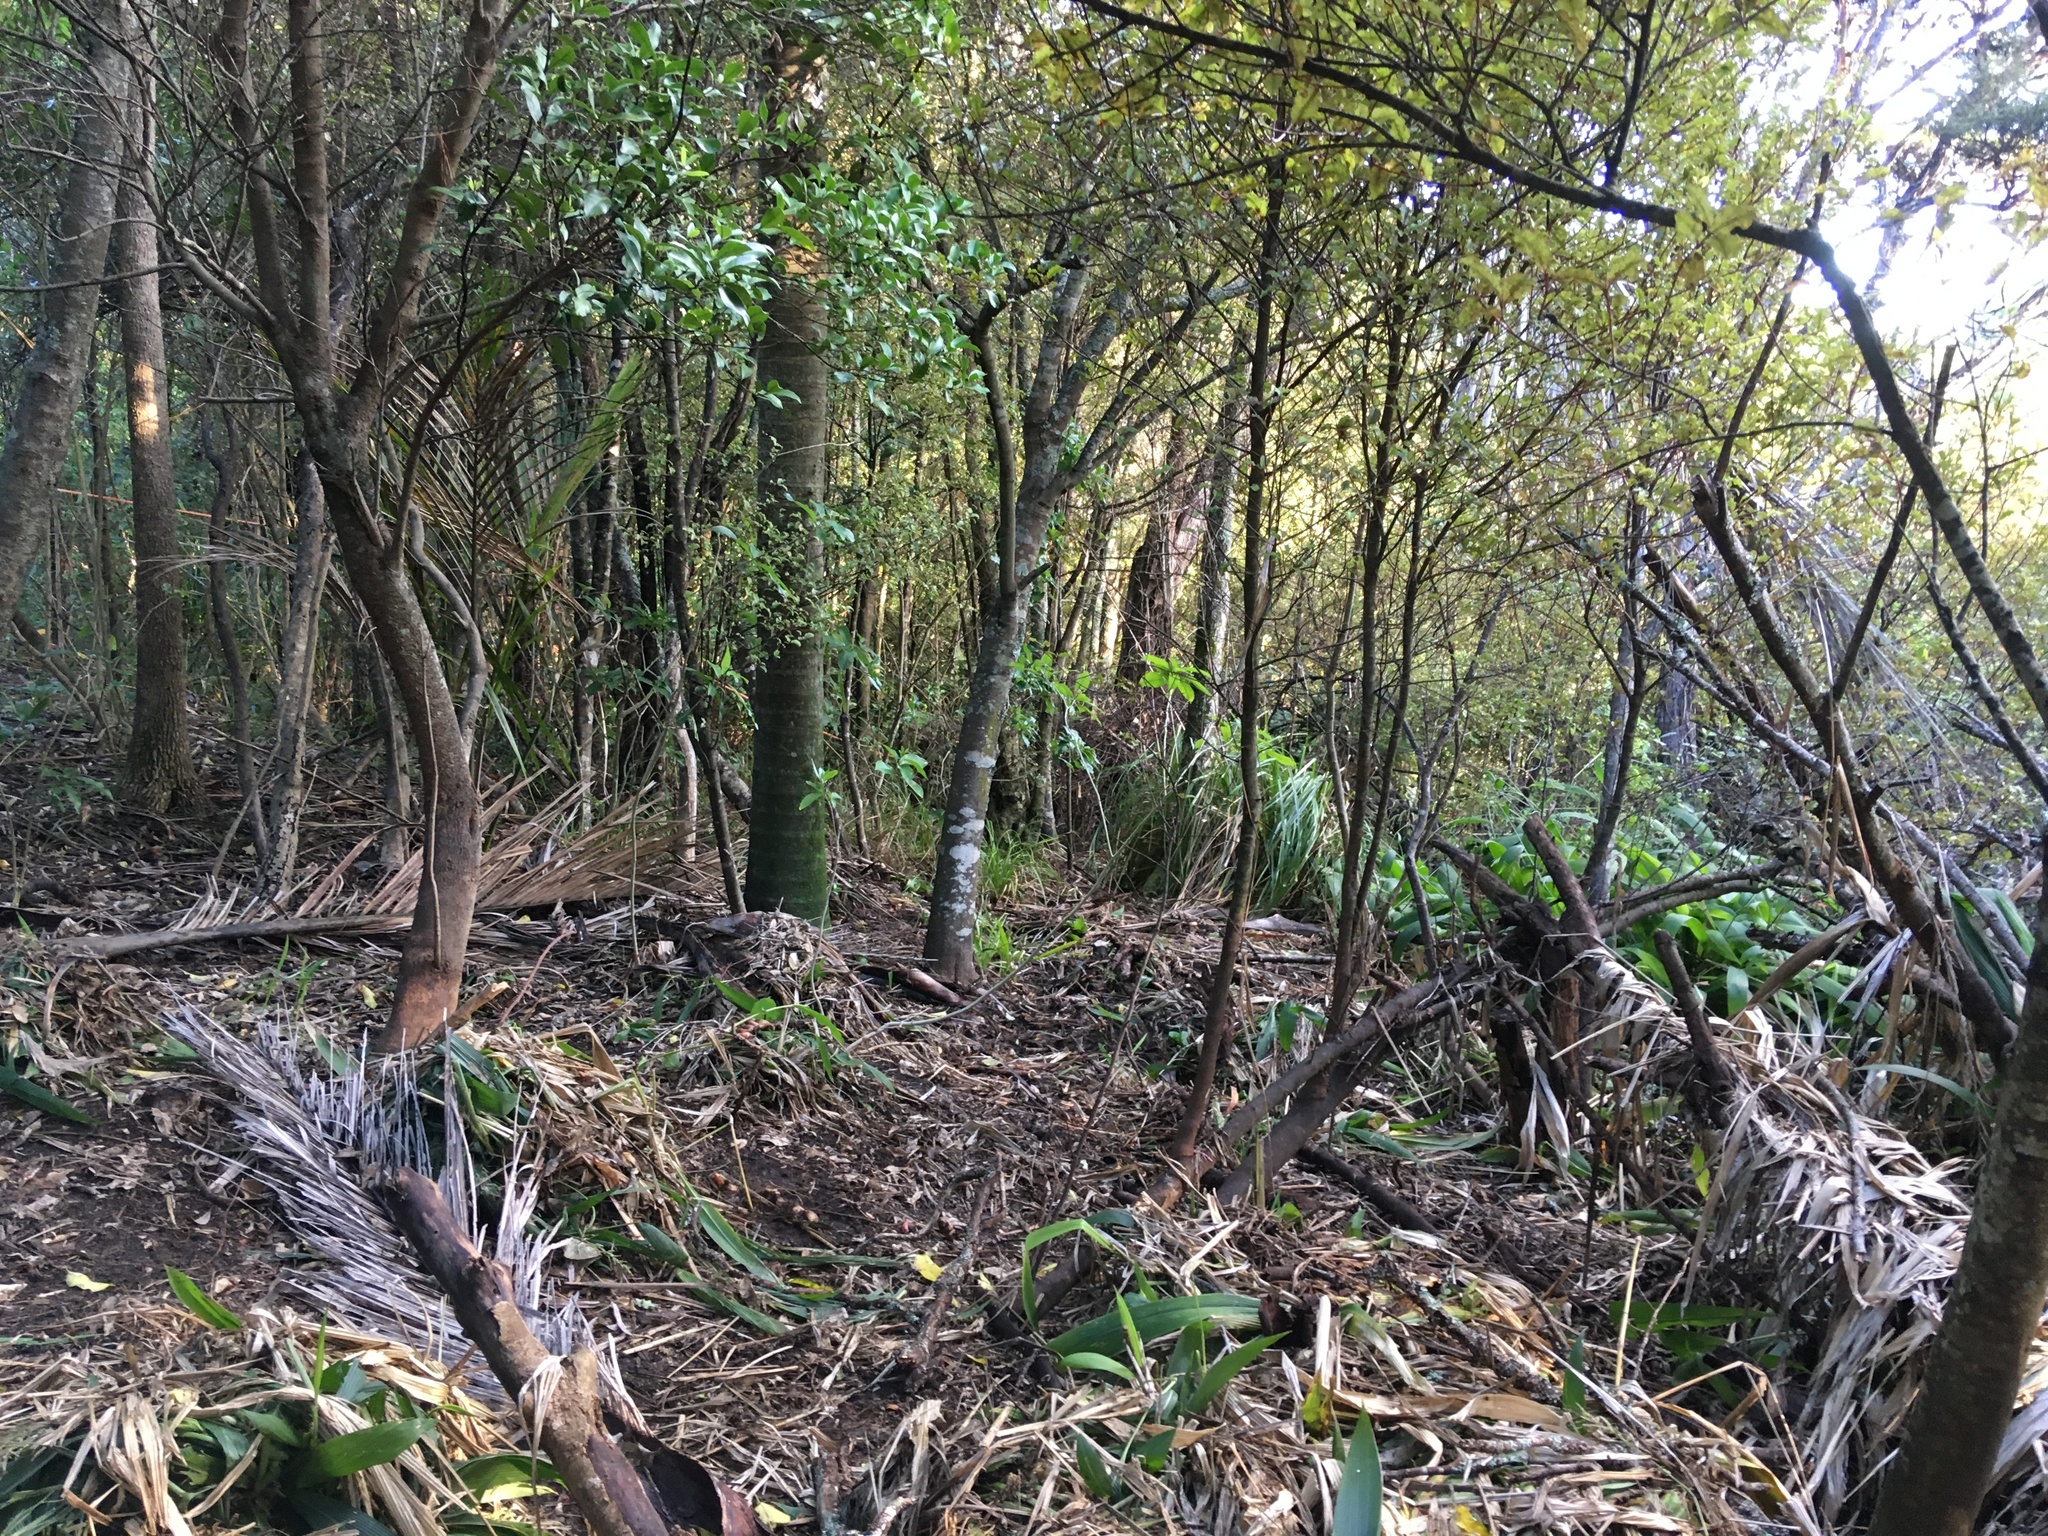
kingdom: Plantae
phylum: Tracheophyta
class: Magnoliopsida
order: Ericales
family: Primulaceae
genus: Myrsine
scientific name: Myrsine australis
